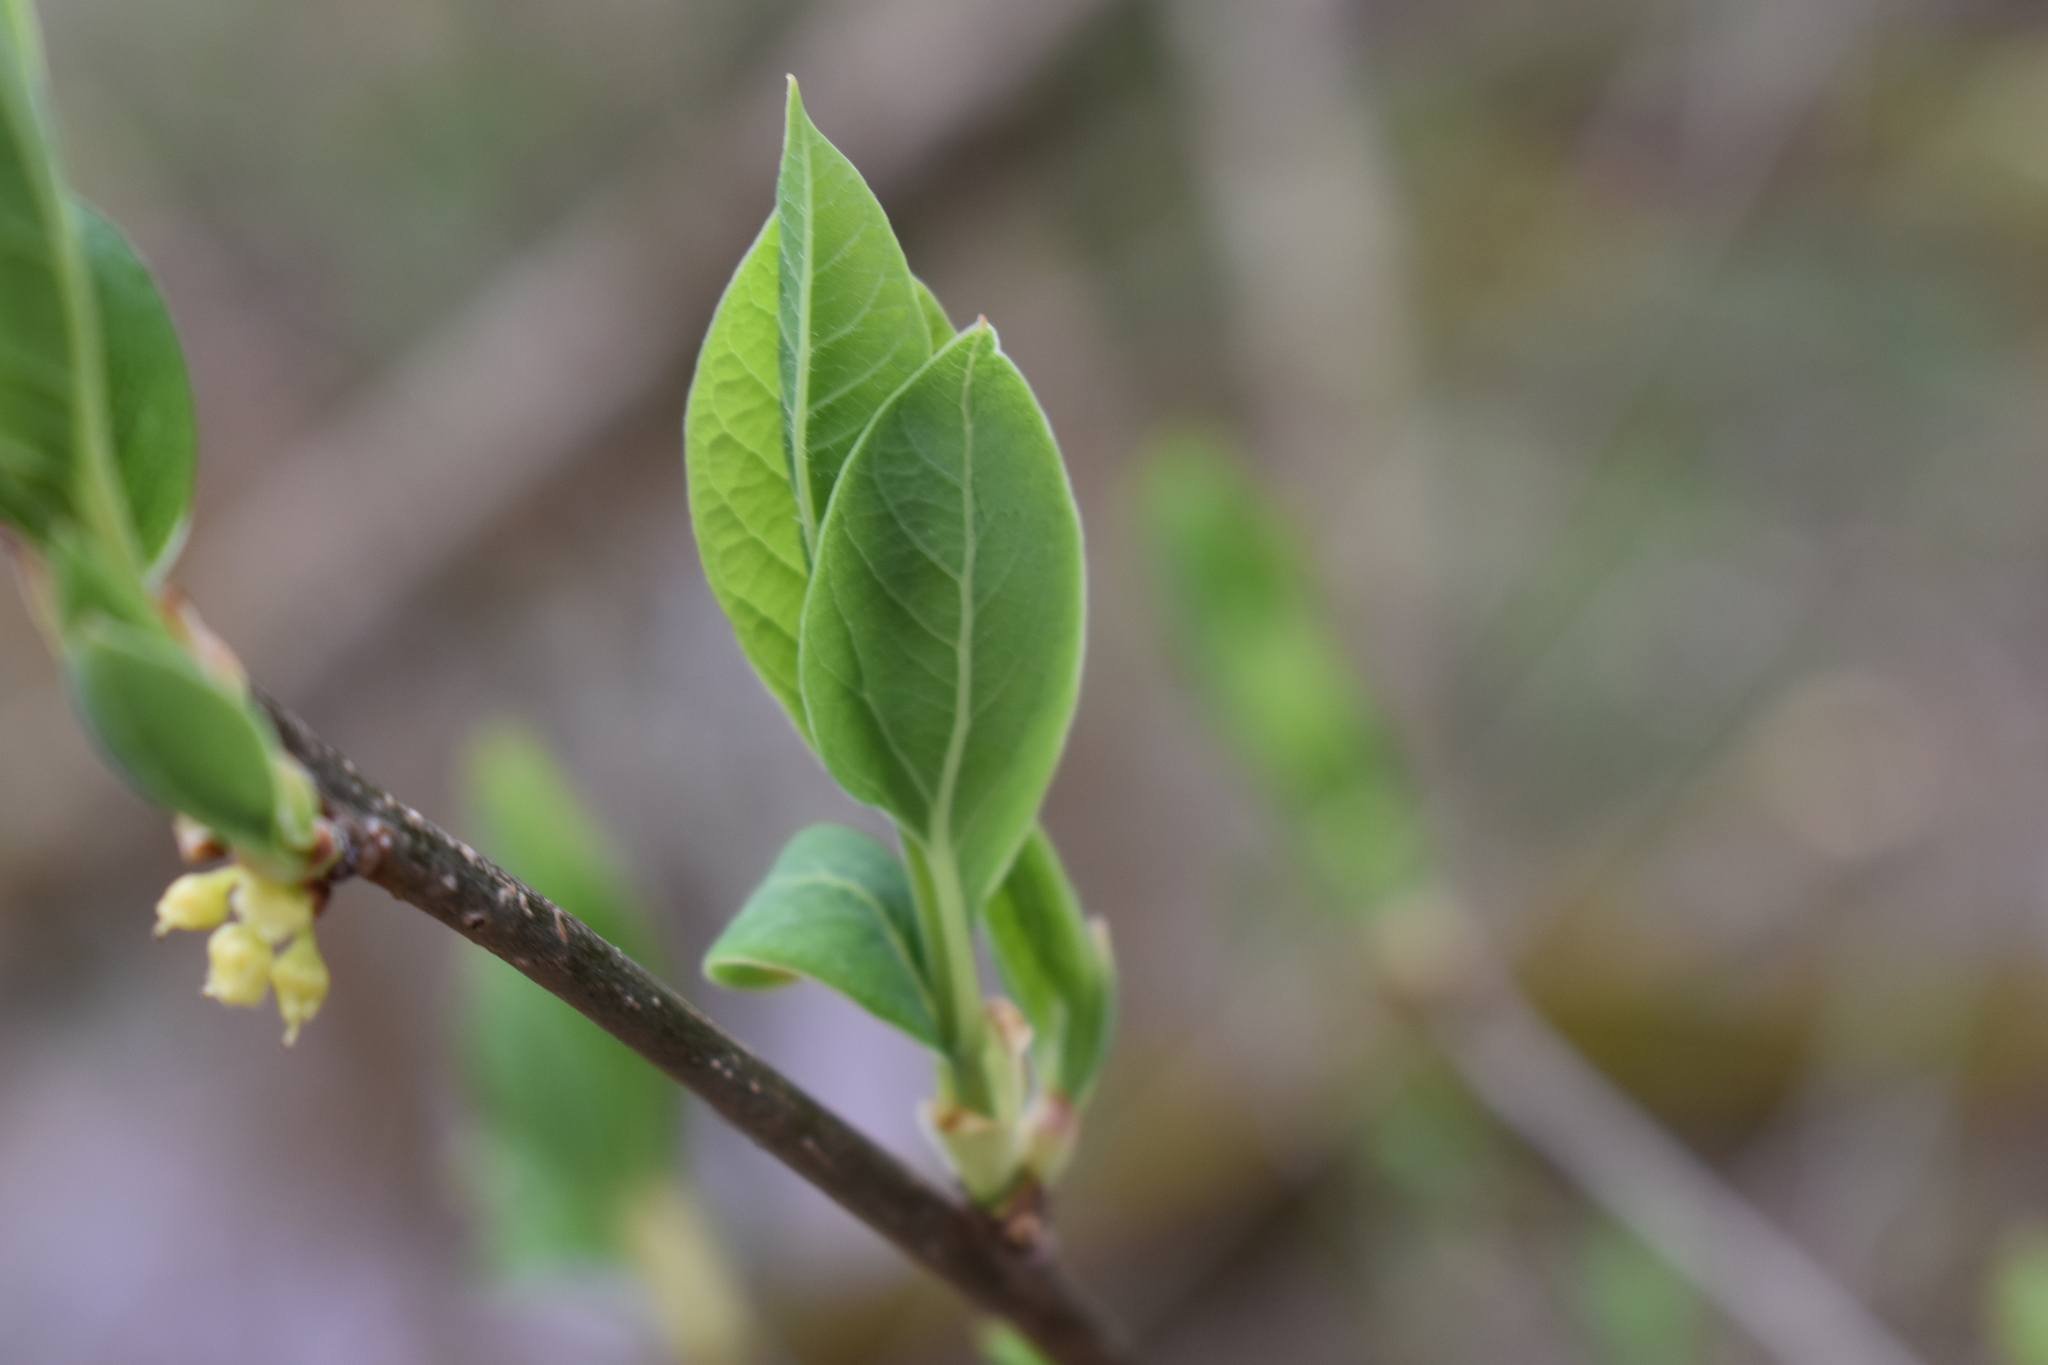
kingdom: Plantae
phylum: Tracheophyta
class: Magnoliopsida
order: Laurales
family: Lauraceae
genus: Lindera
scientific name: Lindera benzoin
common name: Spicebush
